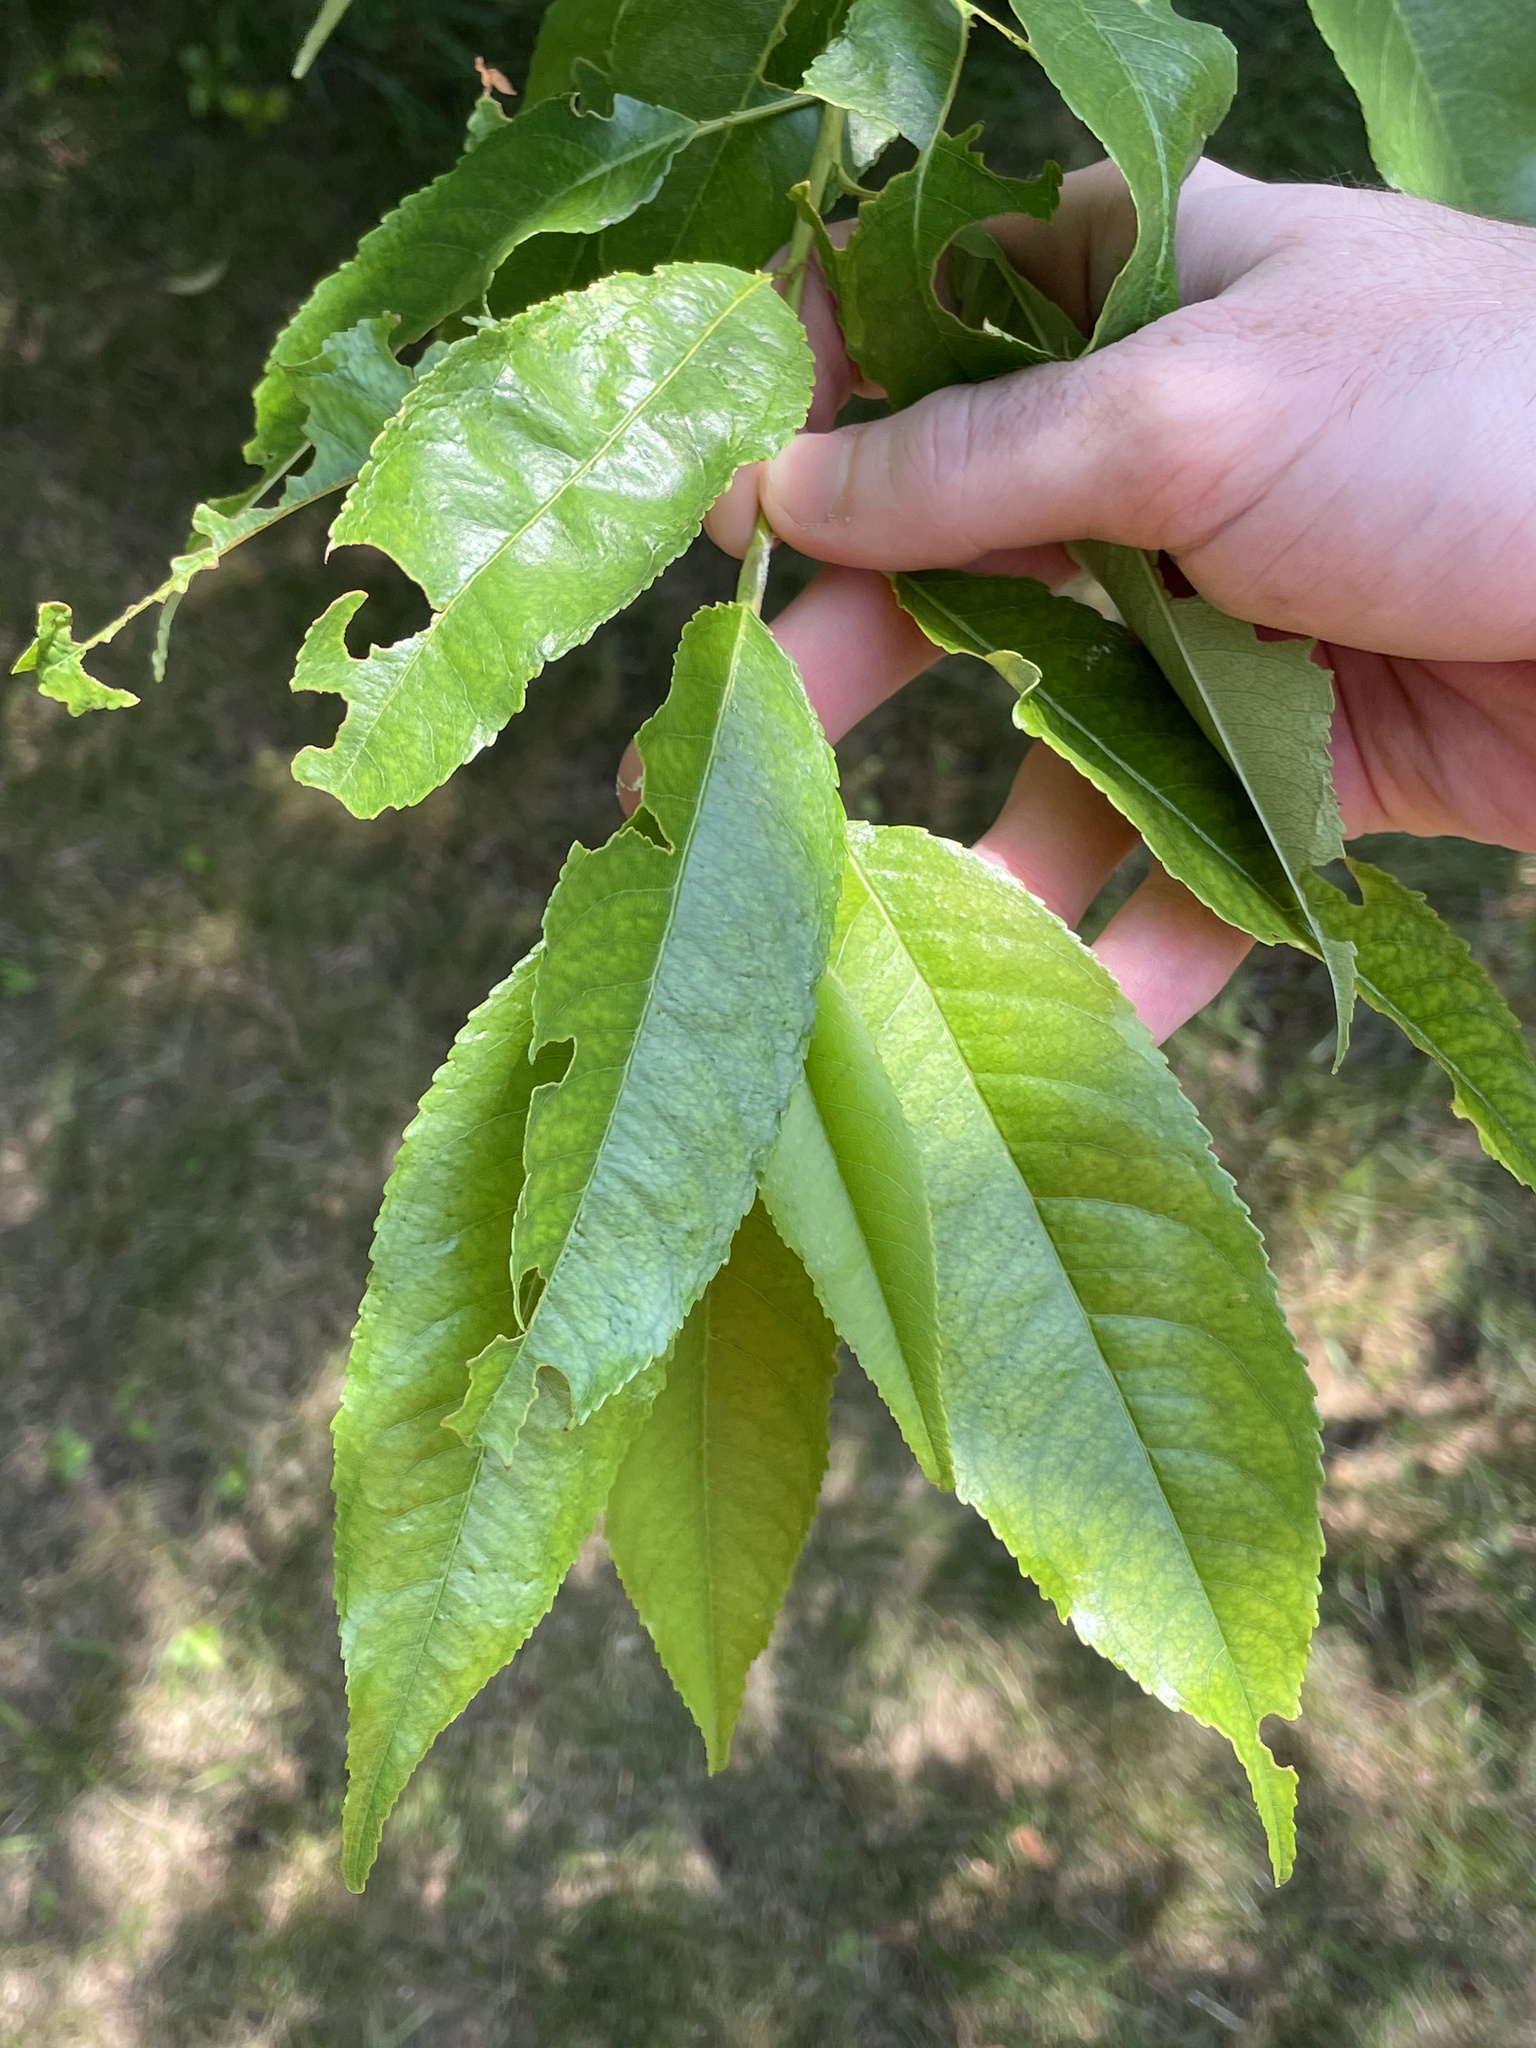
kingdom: Plantae
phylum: Tracheophyta
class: Magnoliopsida
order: Rosales
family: Rosaceae
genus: Prunus
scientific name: Prunus serotina
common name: Black cherry
